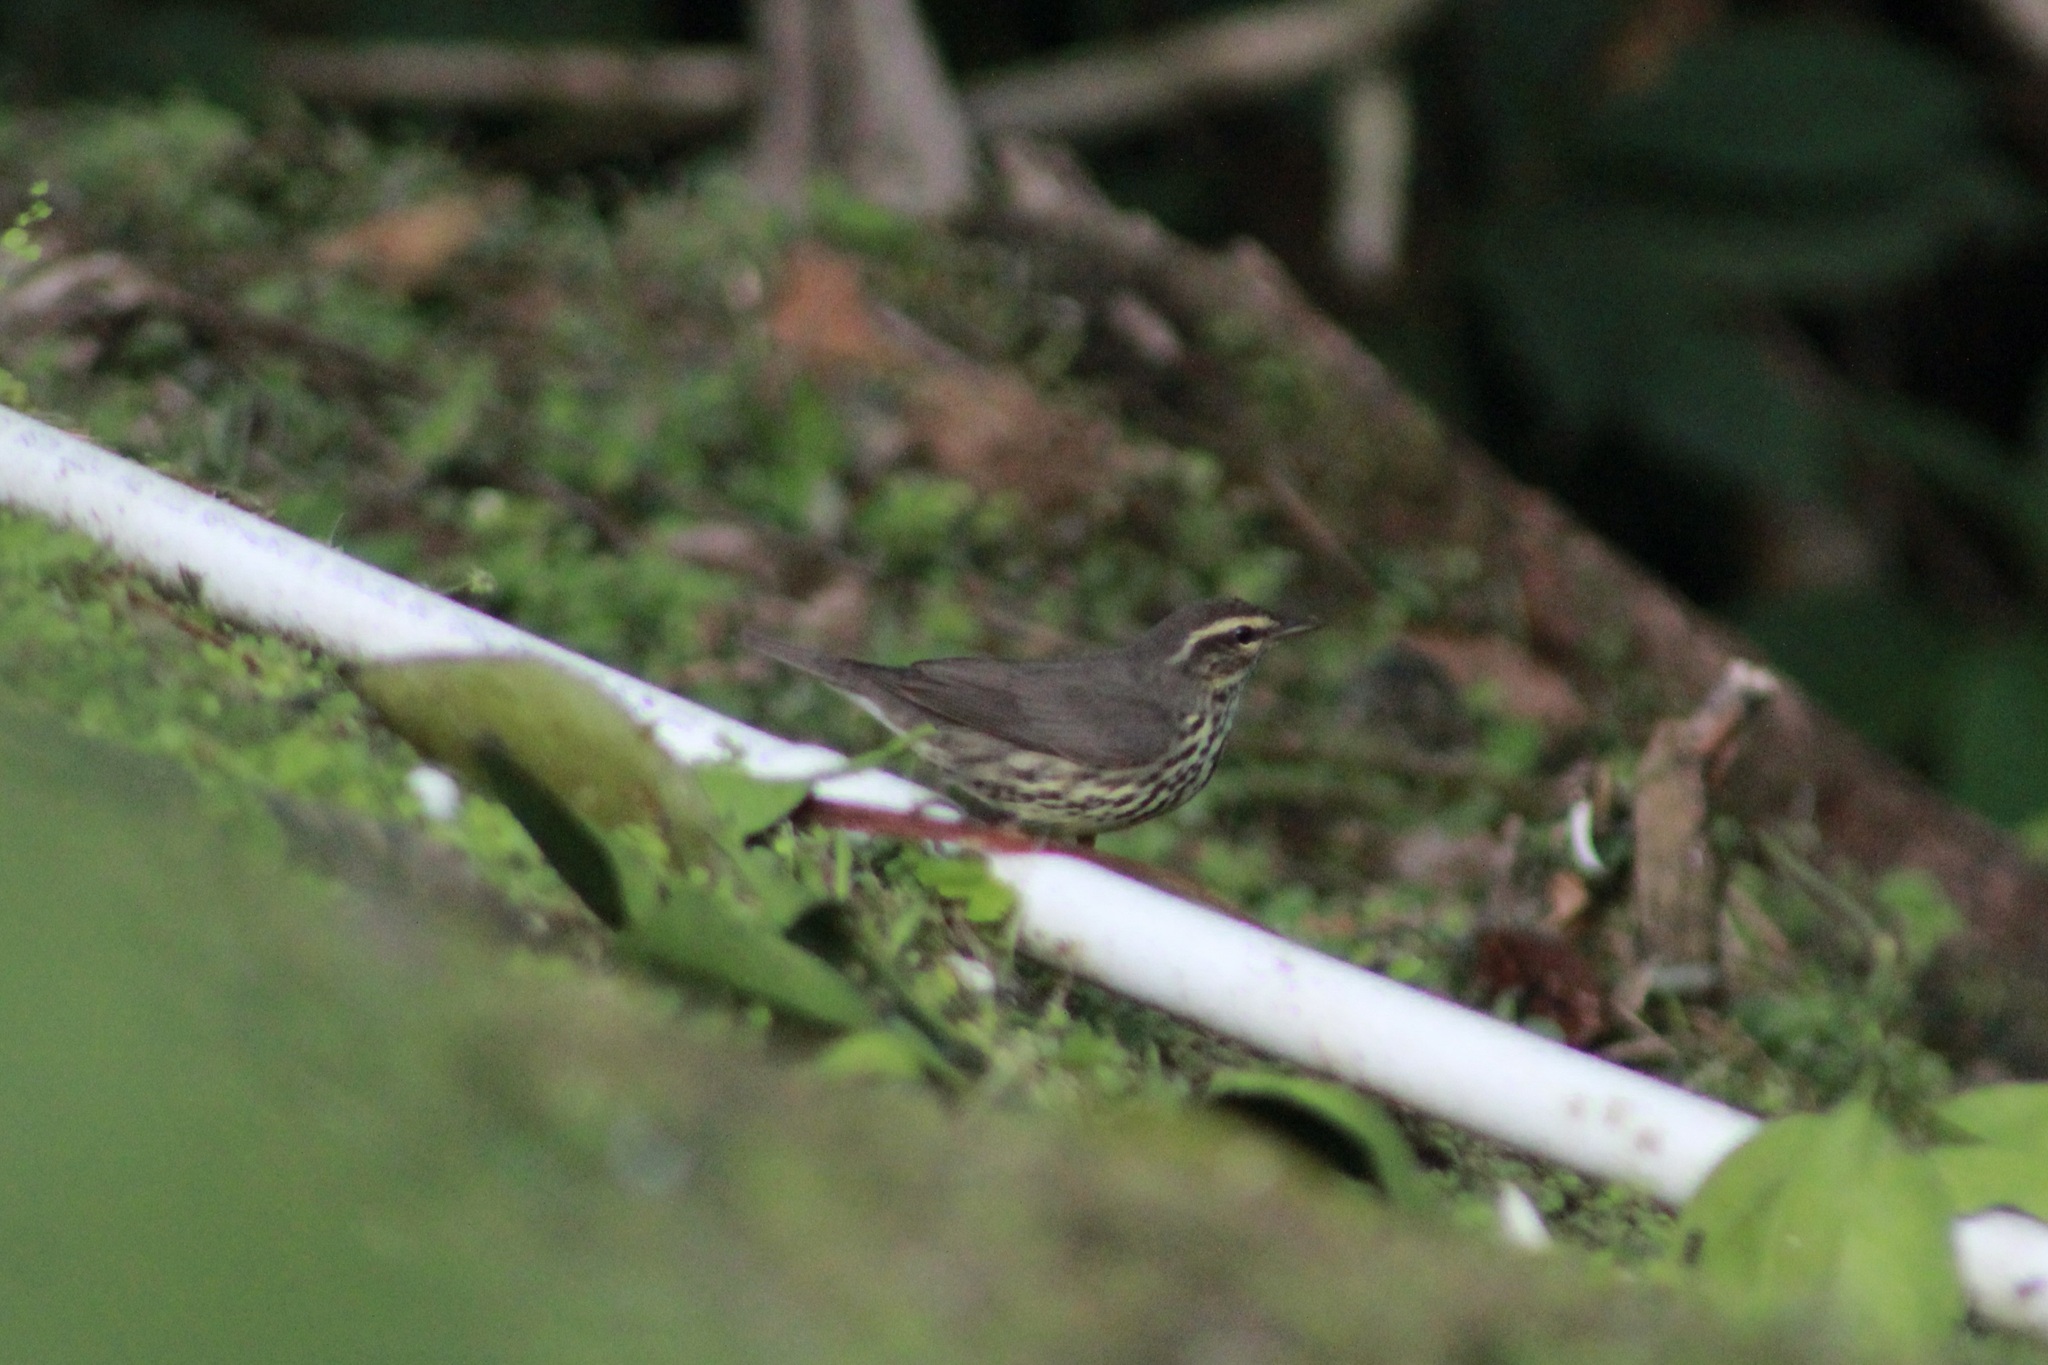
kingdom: Animalia
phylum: Chordata
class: Aves
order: Passeriformes
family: Parulidae
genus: Parkesia
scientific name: Parkesia noveboracensis
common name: Northern waterthrush
